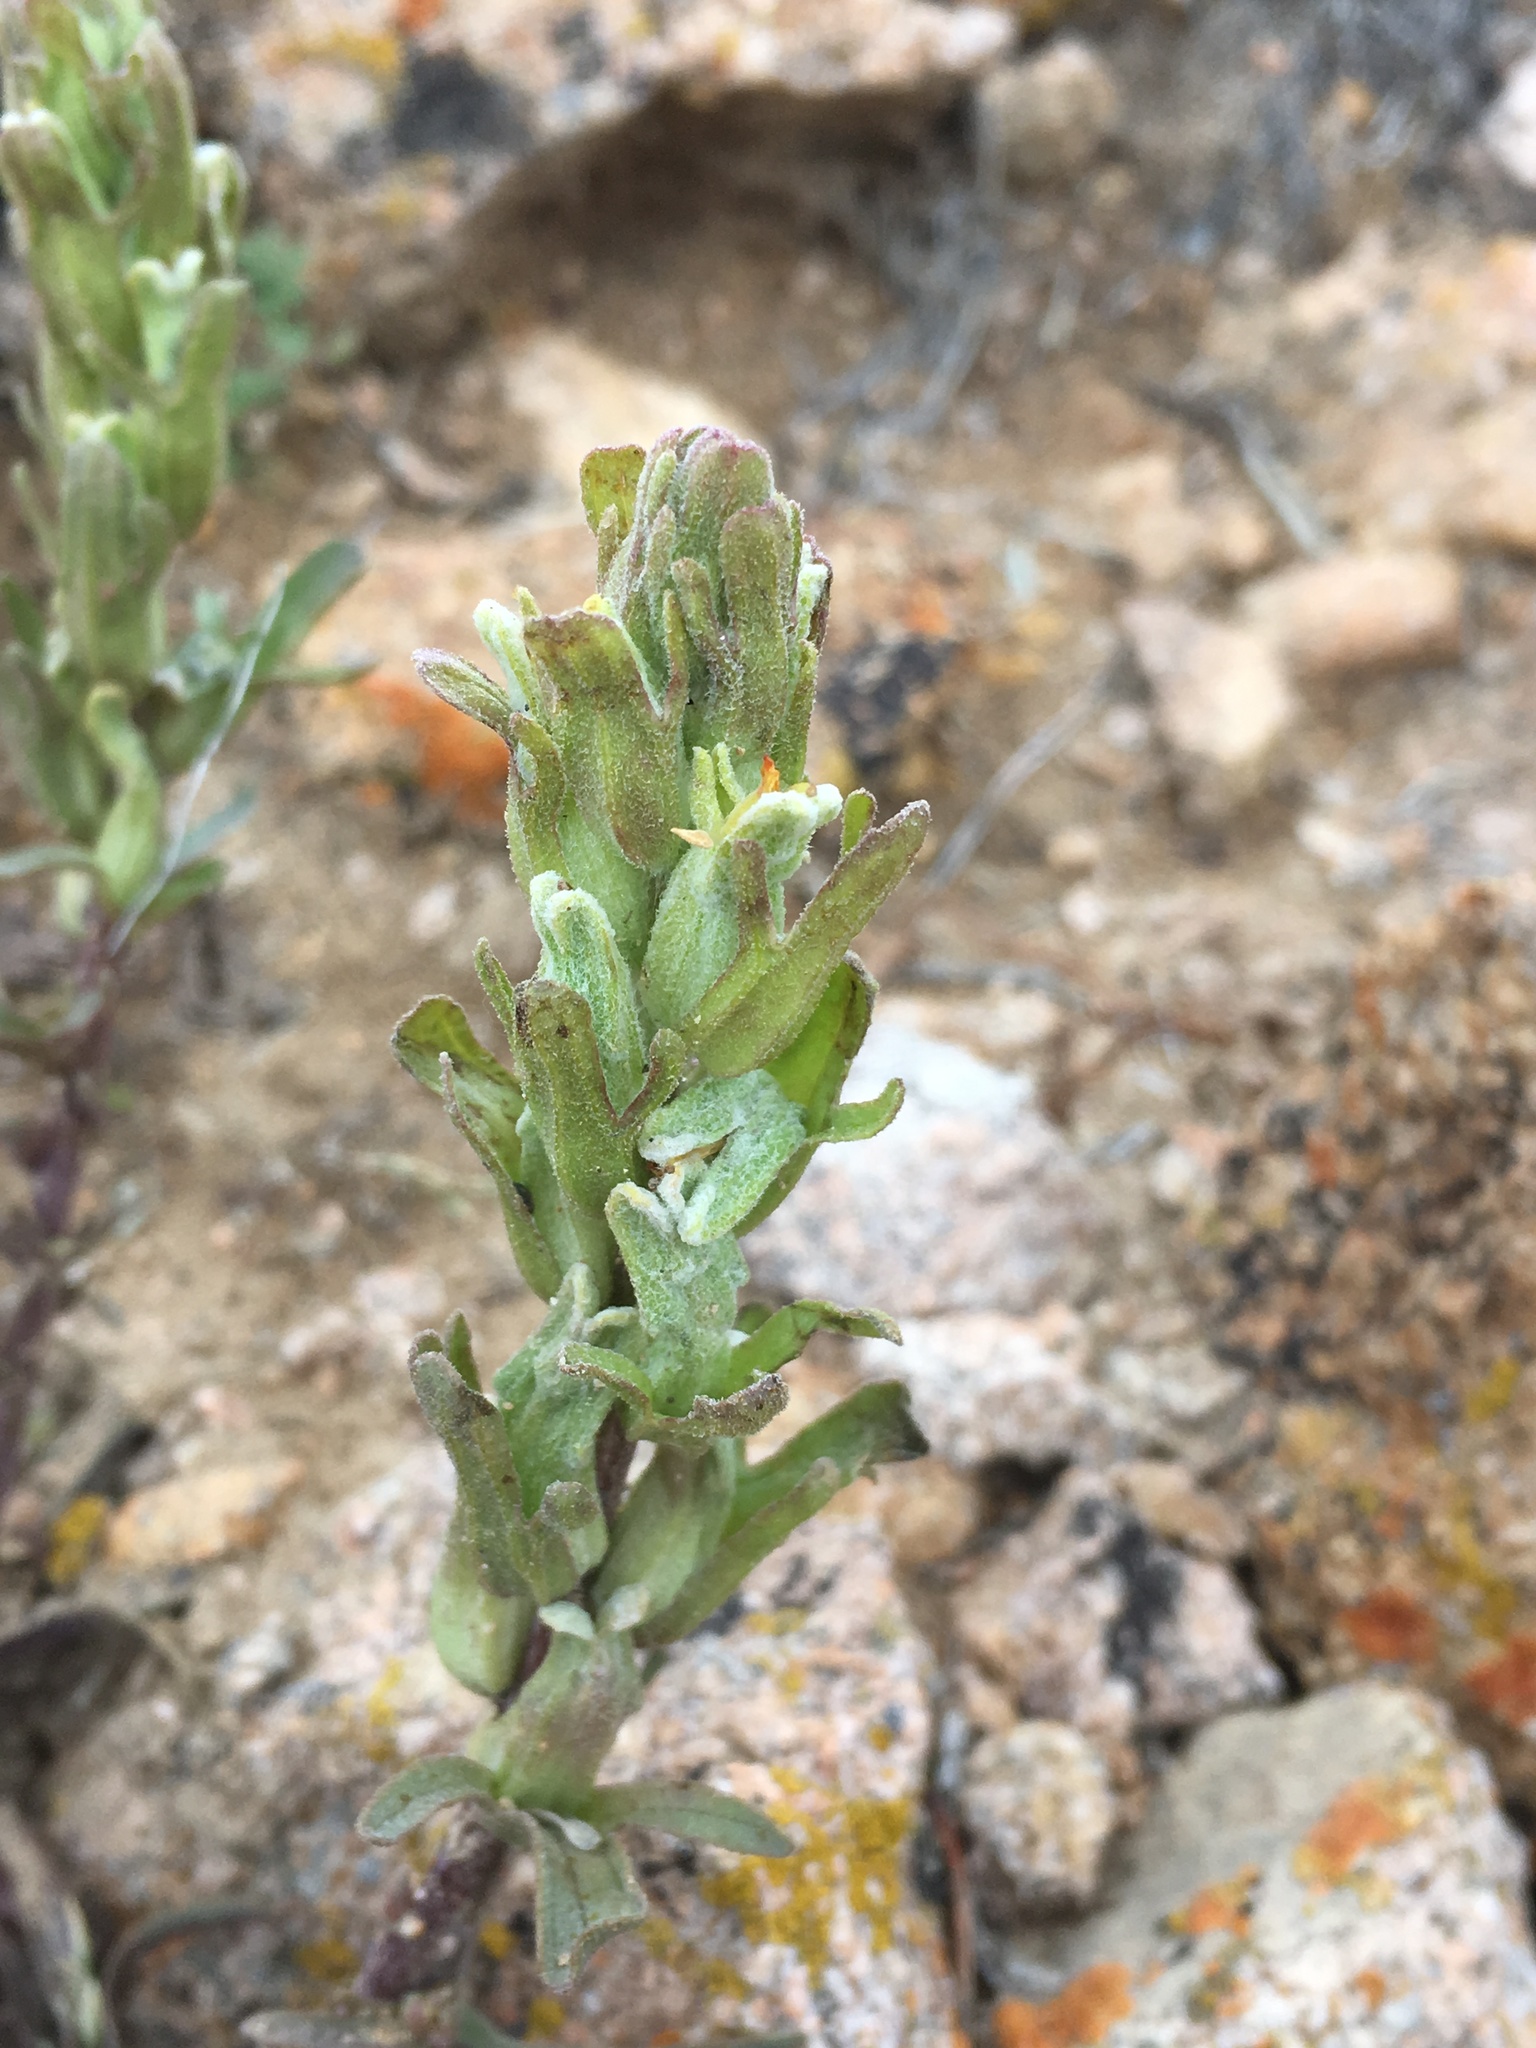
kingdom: Plantae
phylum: Tracheophyta
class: Magnoliopsida
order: Lamiales
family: Orobanchaceae
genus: Castilleja
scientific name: Castilleja plagiotoma
